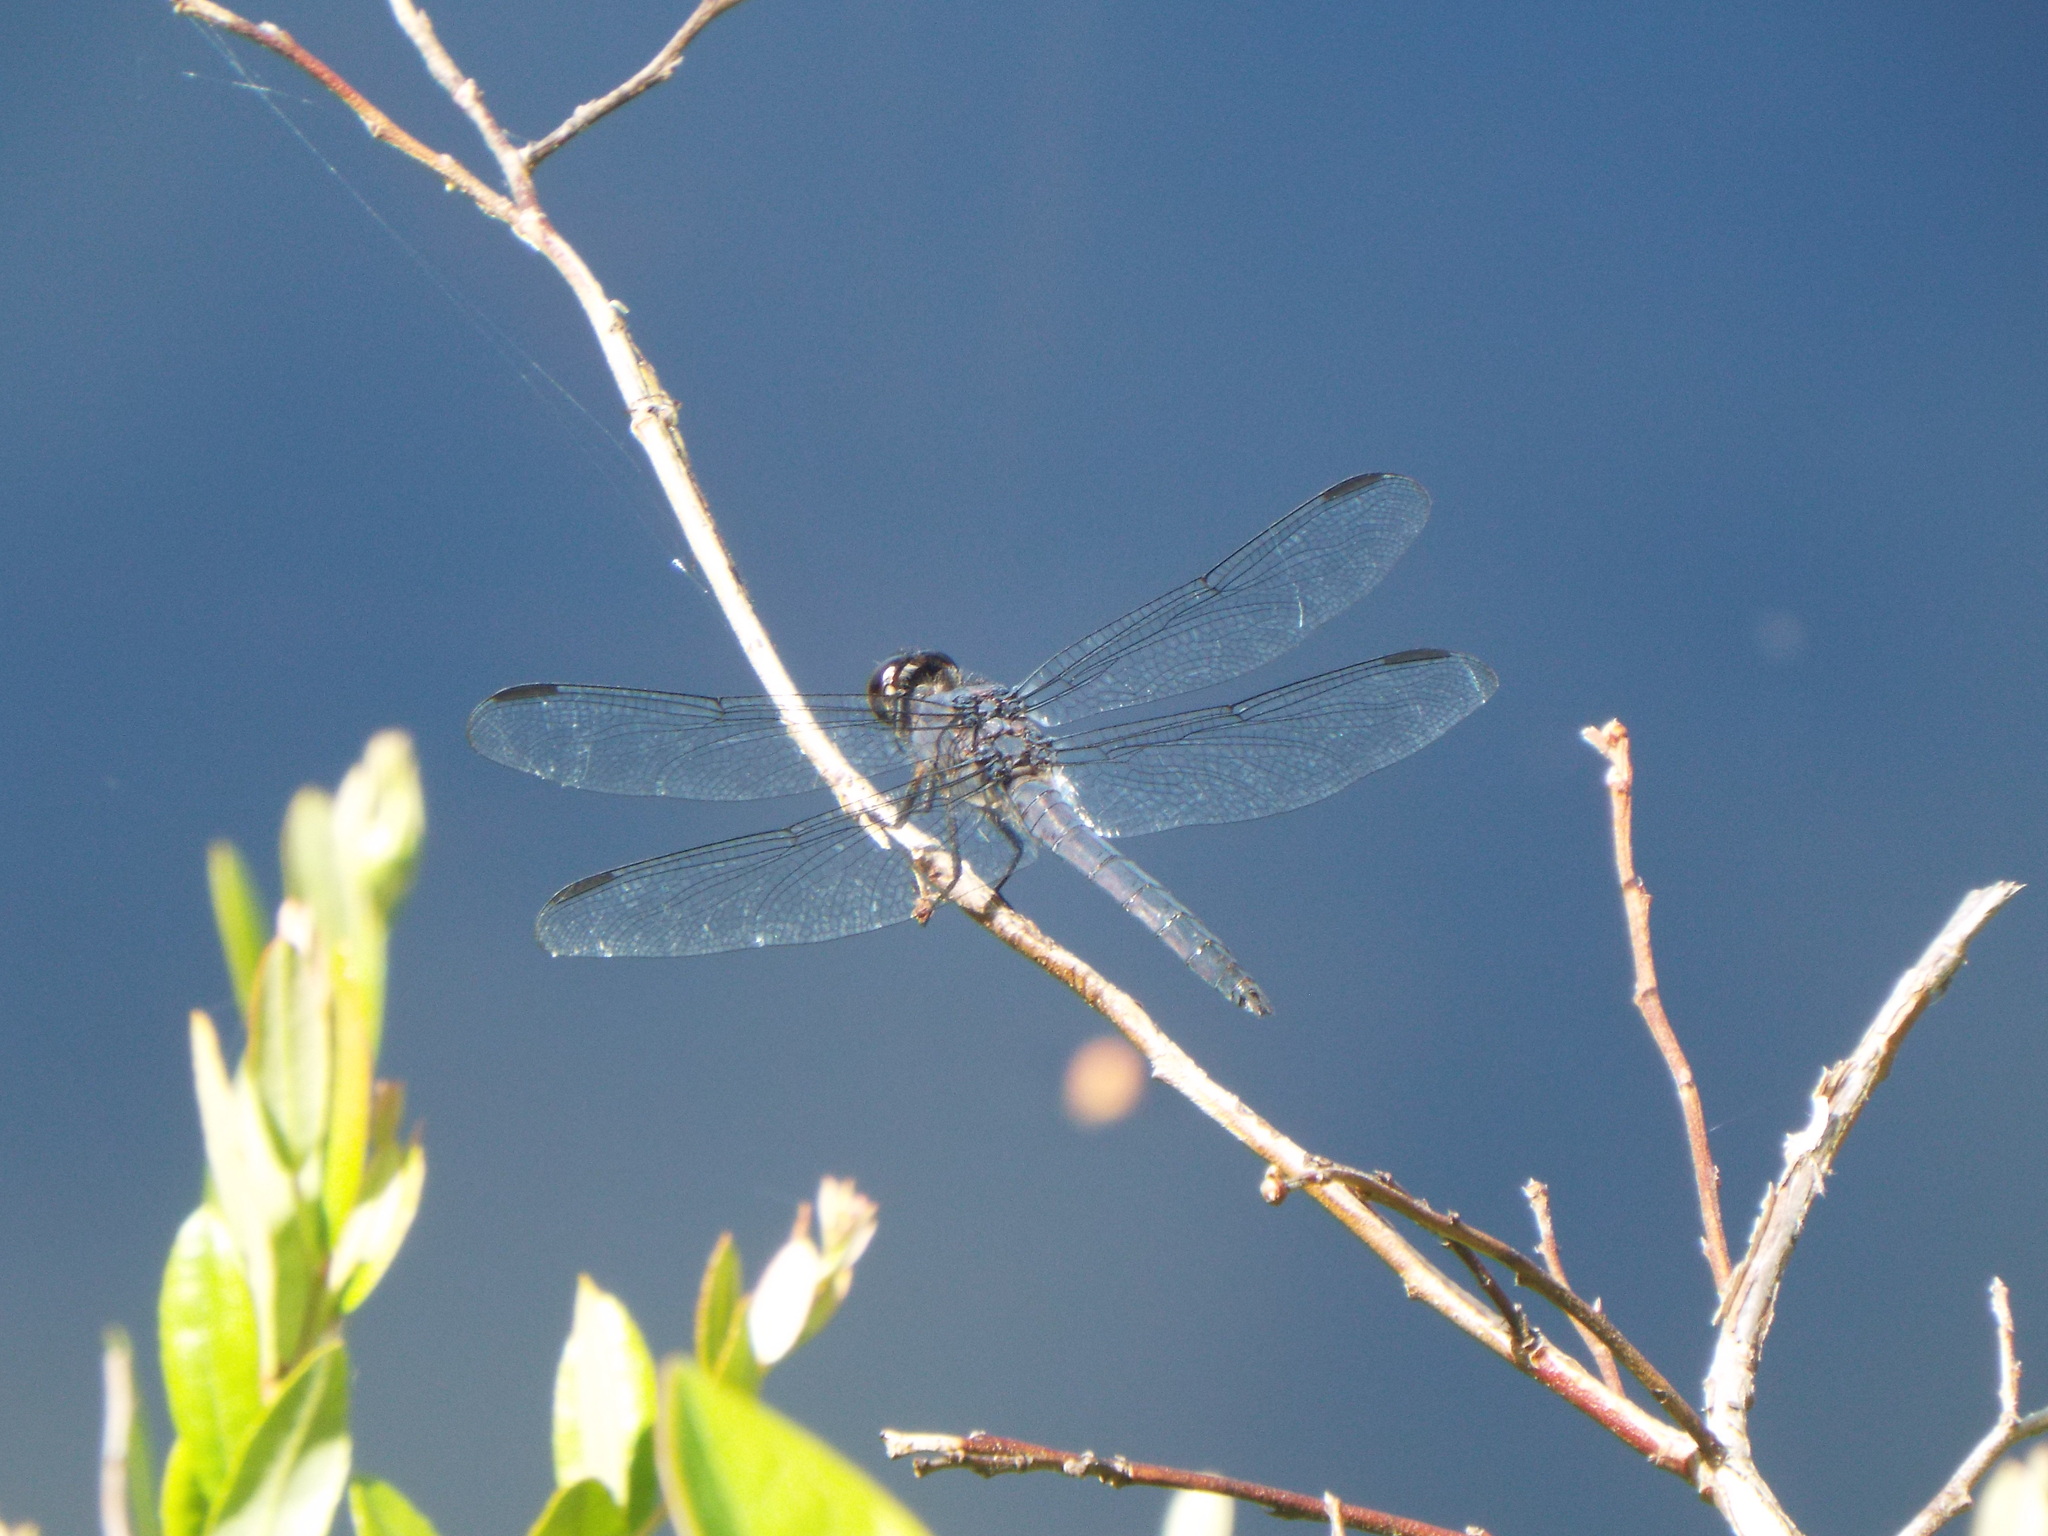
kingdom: Animalia
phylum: Arthropoda
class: Insecta
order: Odonata
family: Libellulidae
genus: Libellula
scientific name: Libellula incesta
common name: Slaty skimmer
